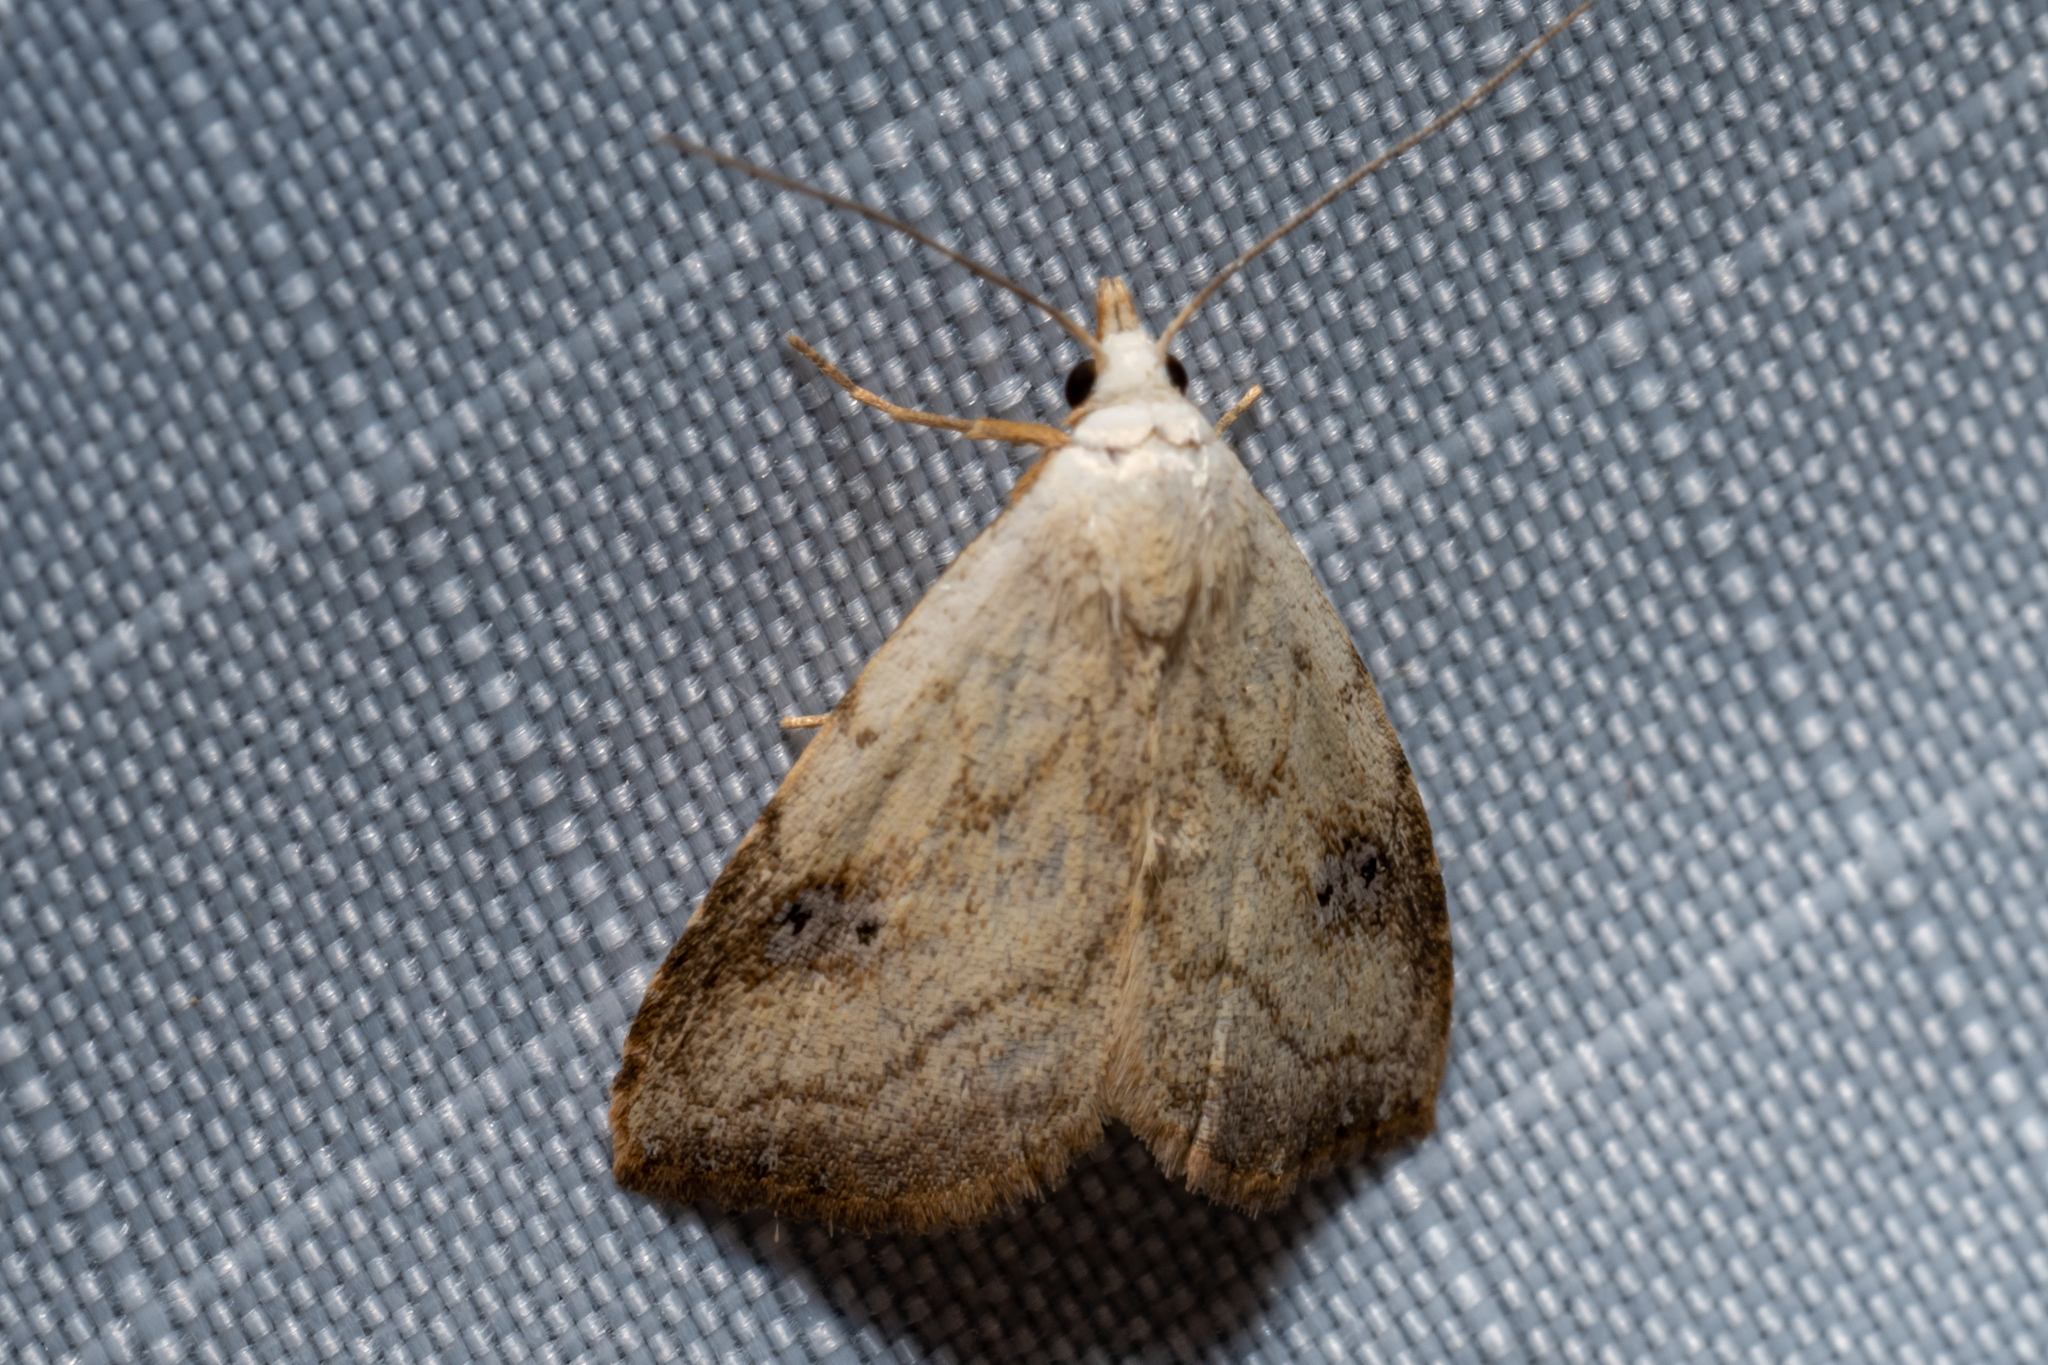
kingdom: Animalia
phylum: Arthropoda
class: Insecta
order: Lepidoptera
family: Erebidae
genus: Rivula
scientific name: Rivula propinqualis
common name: Spotted grass moth
